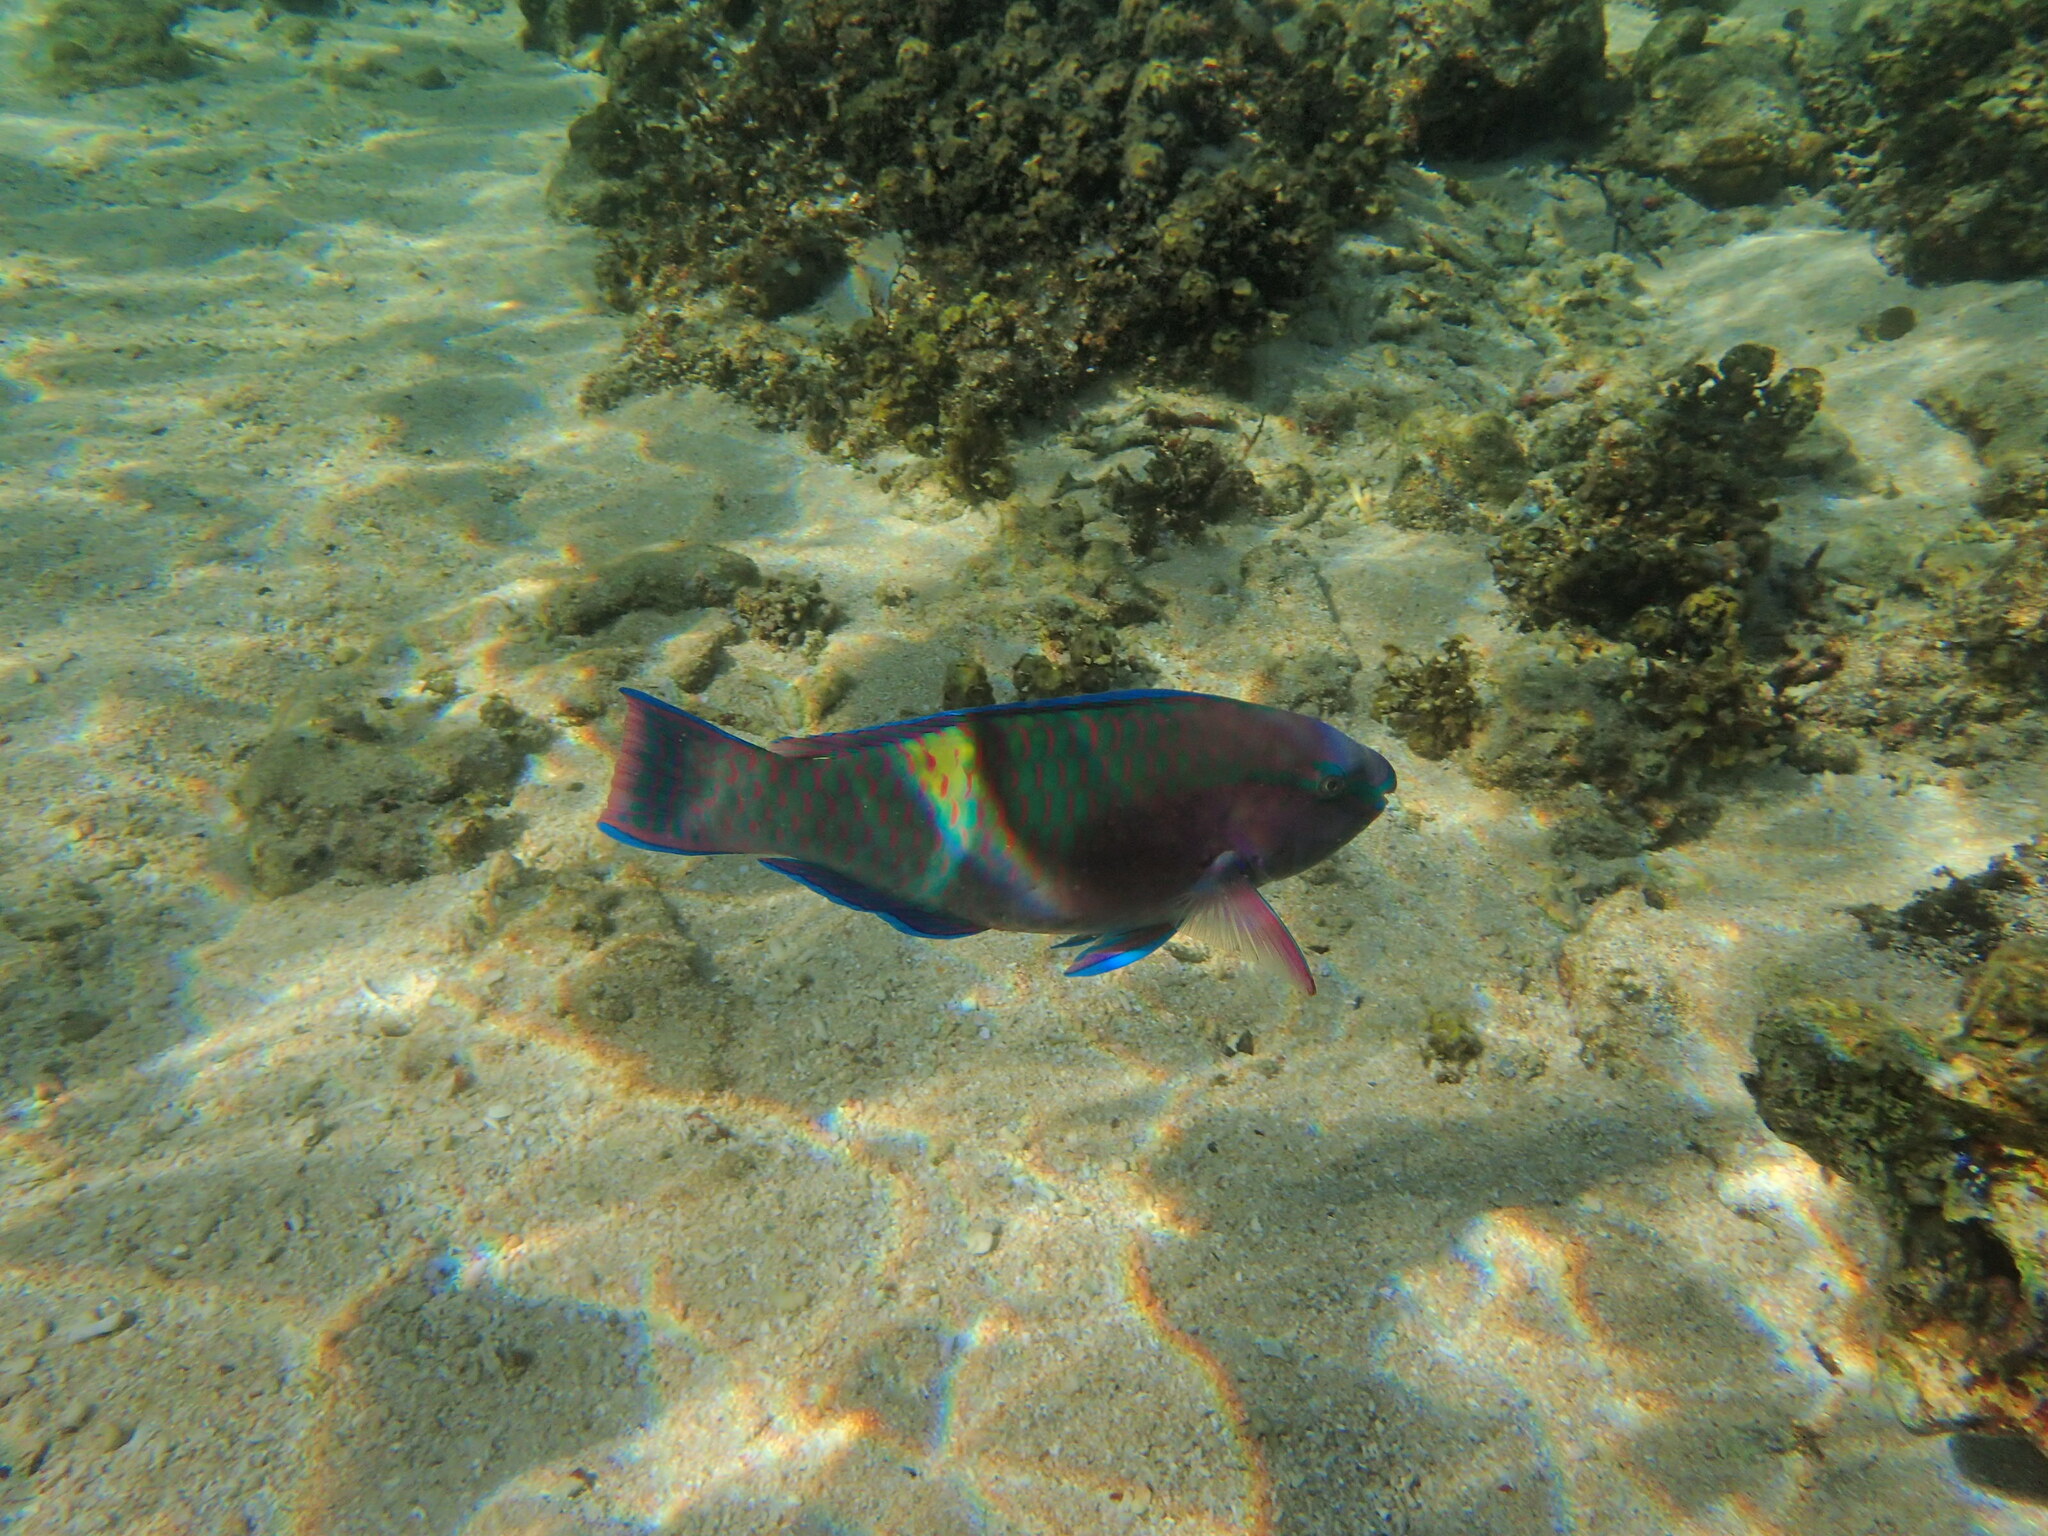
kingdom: Animalia
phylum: Chordata
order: Perciformes
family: Scaridae
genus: Scarus
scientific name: Scarus schlegeli
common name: Schlegel's parrotfish
